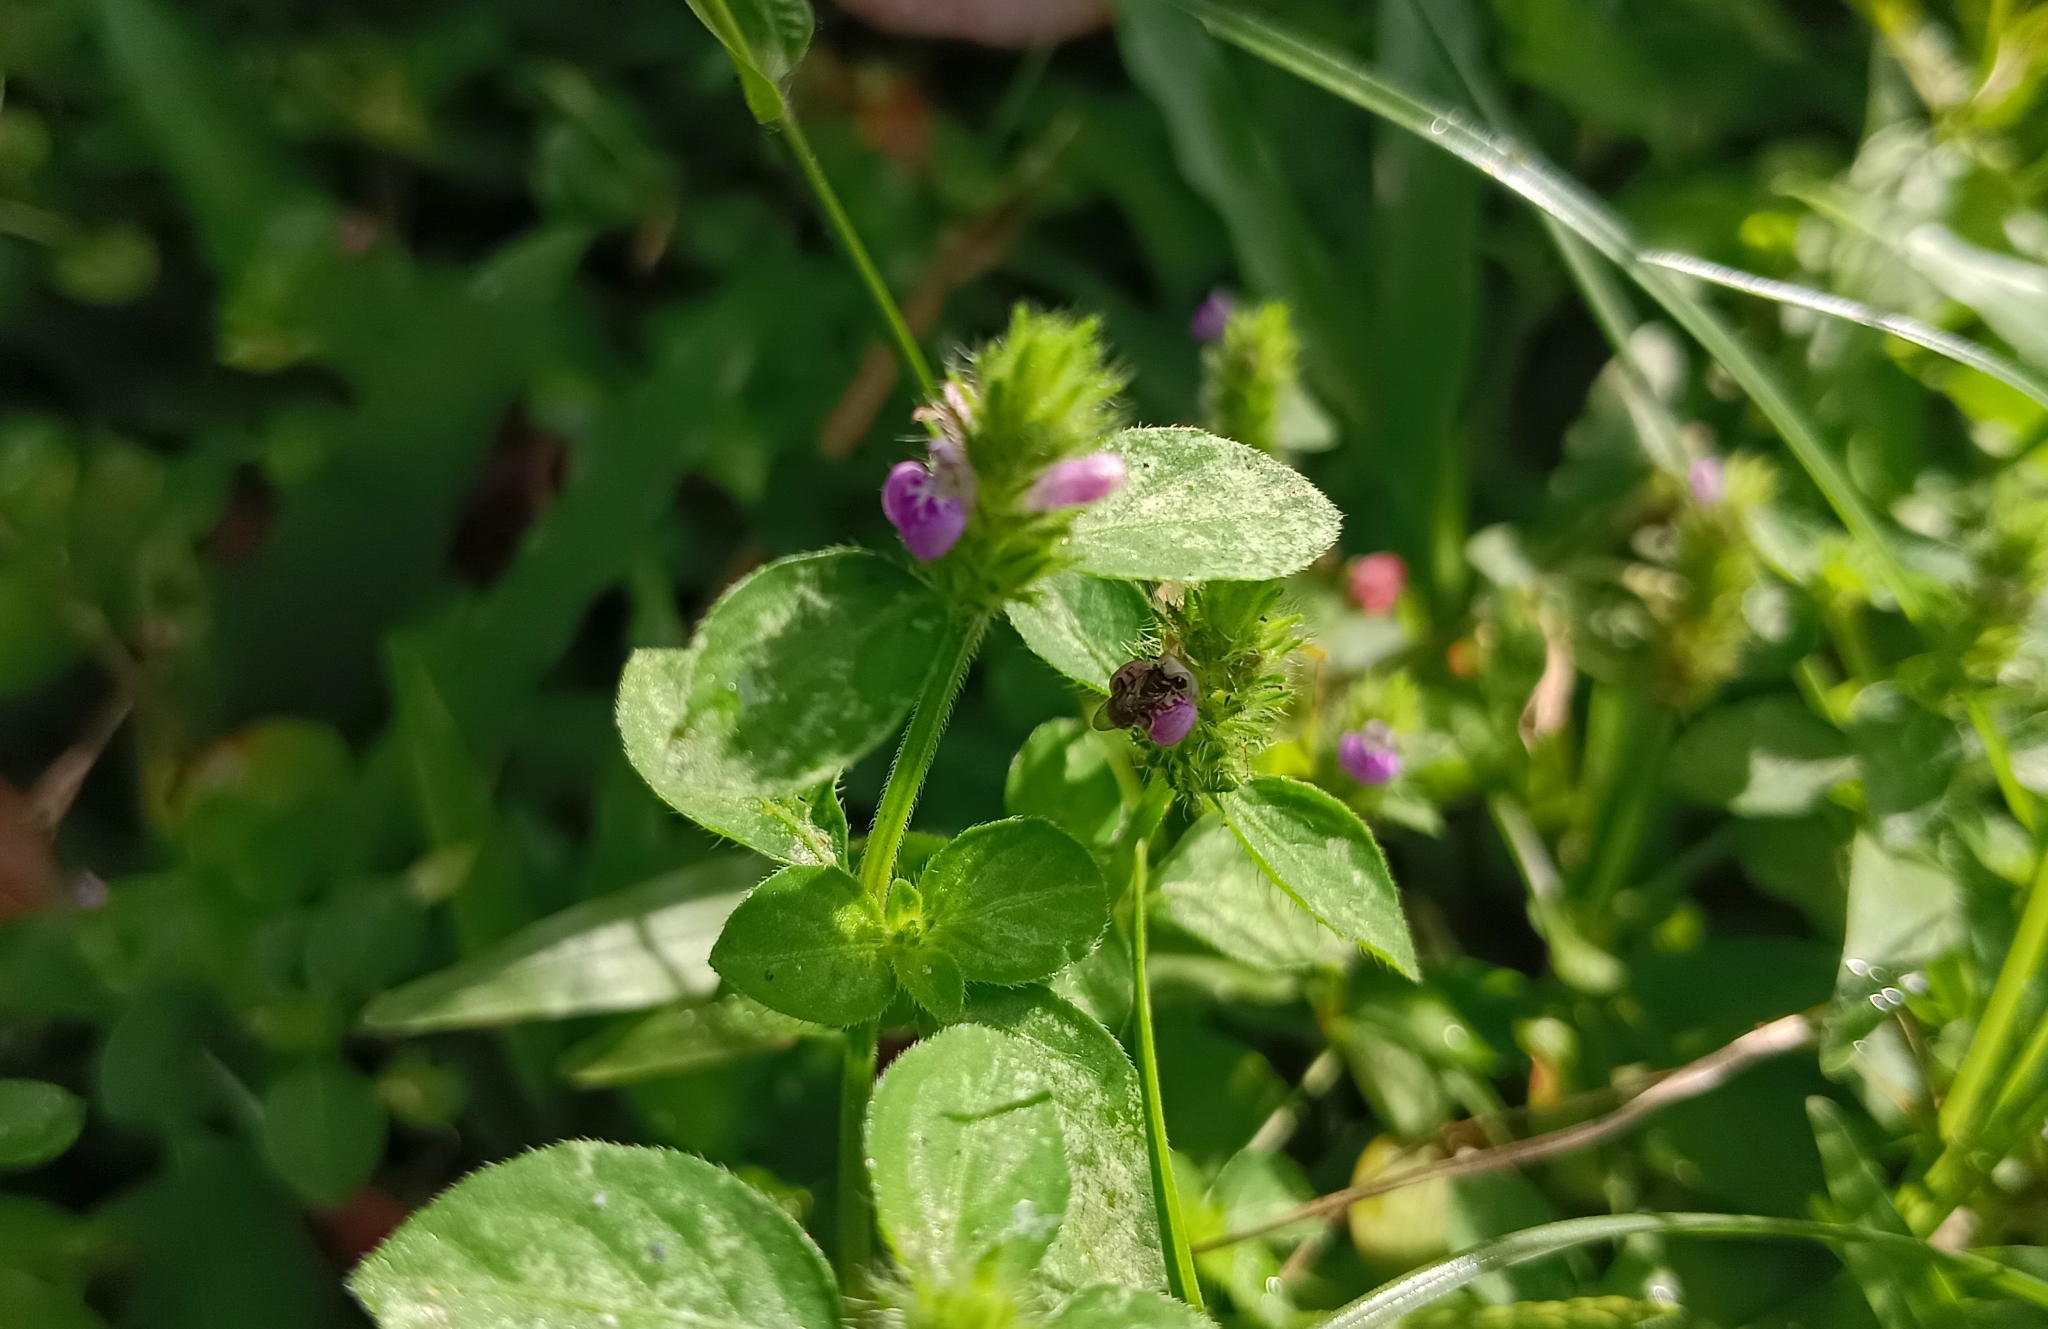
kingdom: Plantae
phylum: Tracheophyta
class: Magnoliopsida
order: Lamiales
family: Acanthaceae
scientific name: Acanthaceae
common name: Acanthaceae
